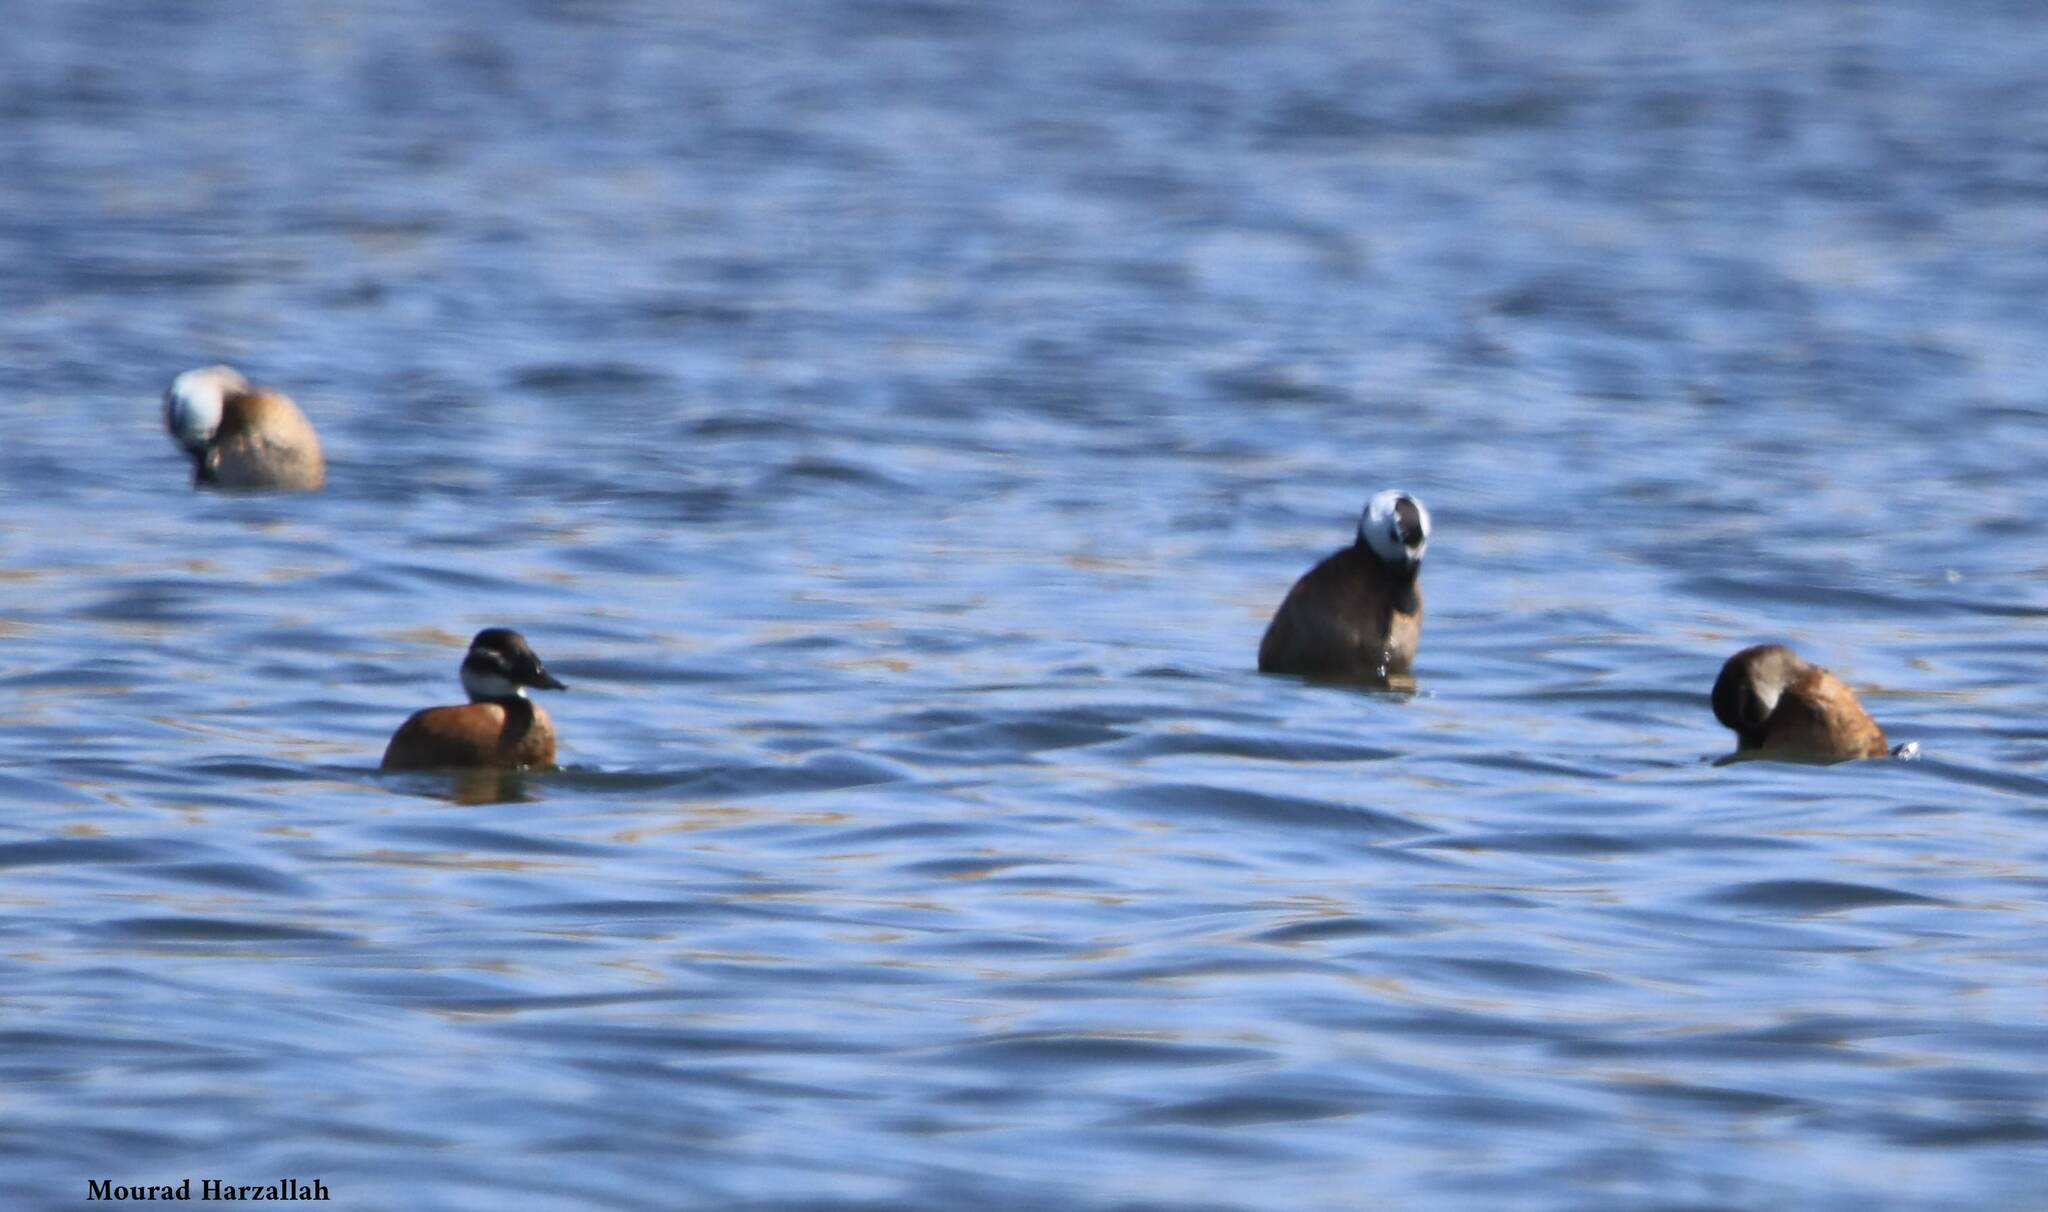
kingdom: Animalia
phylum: Chordata
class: Aves
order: Anseriformes
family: Anatidae
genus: Oxyura
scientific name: Oxyura leucocephala
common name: White-headed duck
